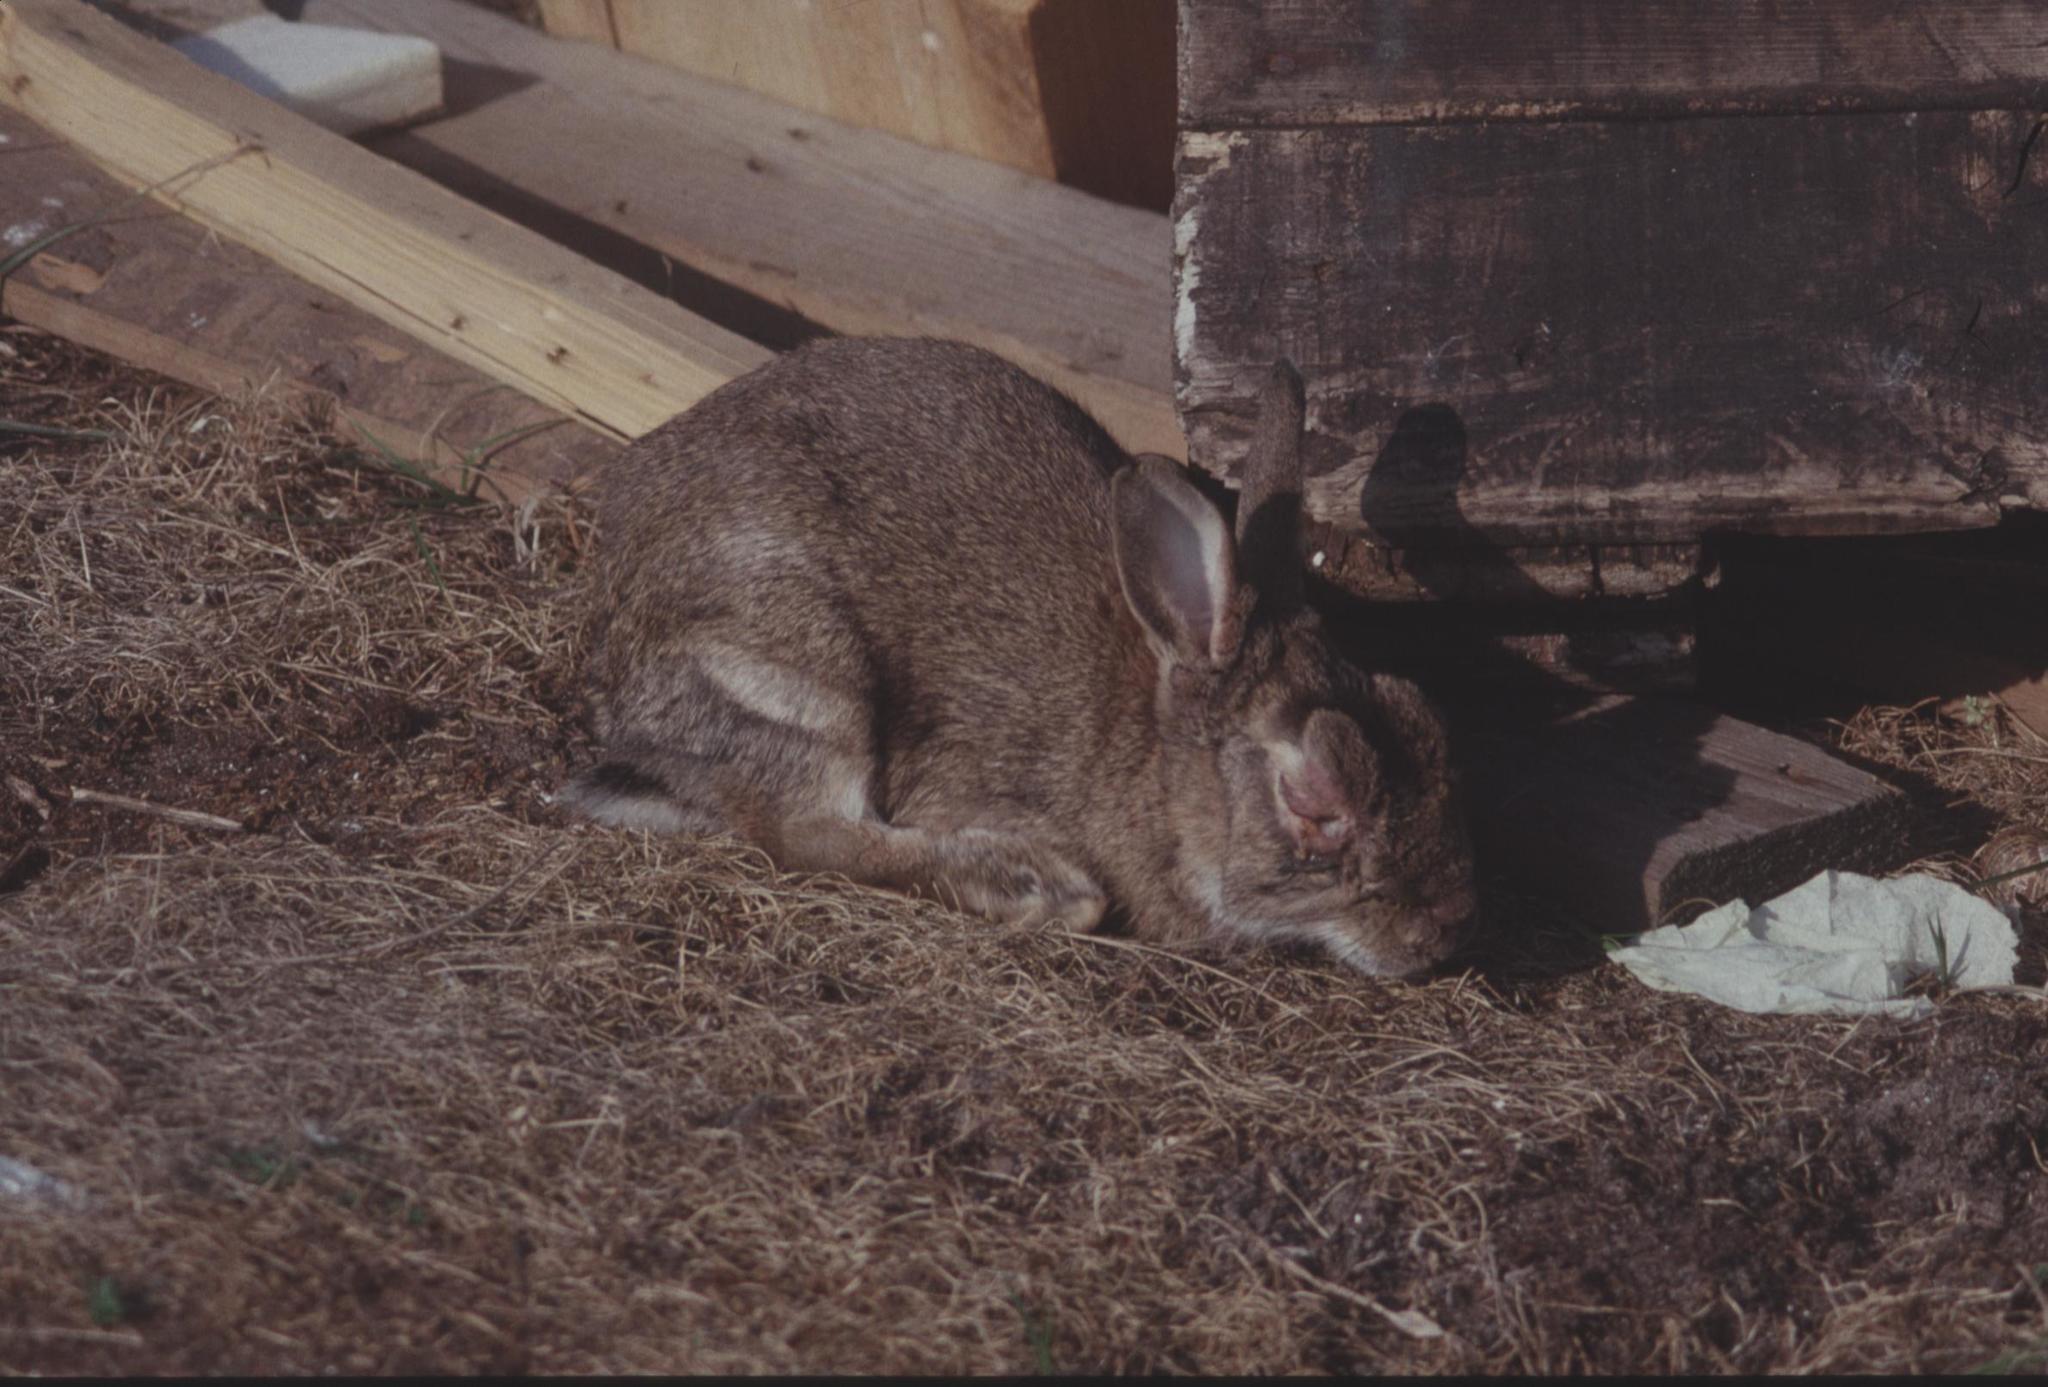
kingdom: Animalia
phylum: Chordata
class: Mammalia
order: Lagomorpha
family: Leporidae
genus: Oryctolagus
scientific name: Oryctolagus cuniculus
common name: European rabbit
